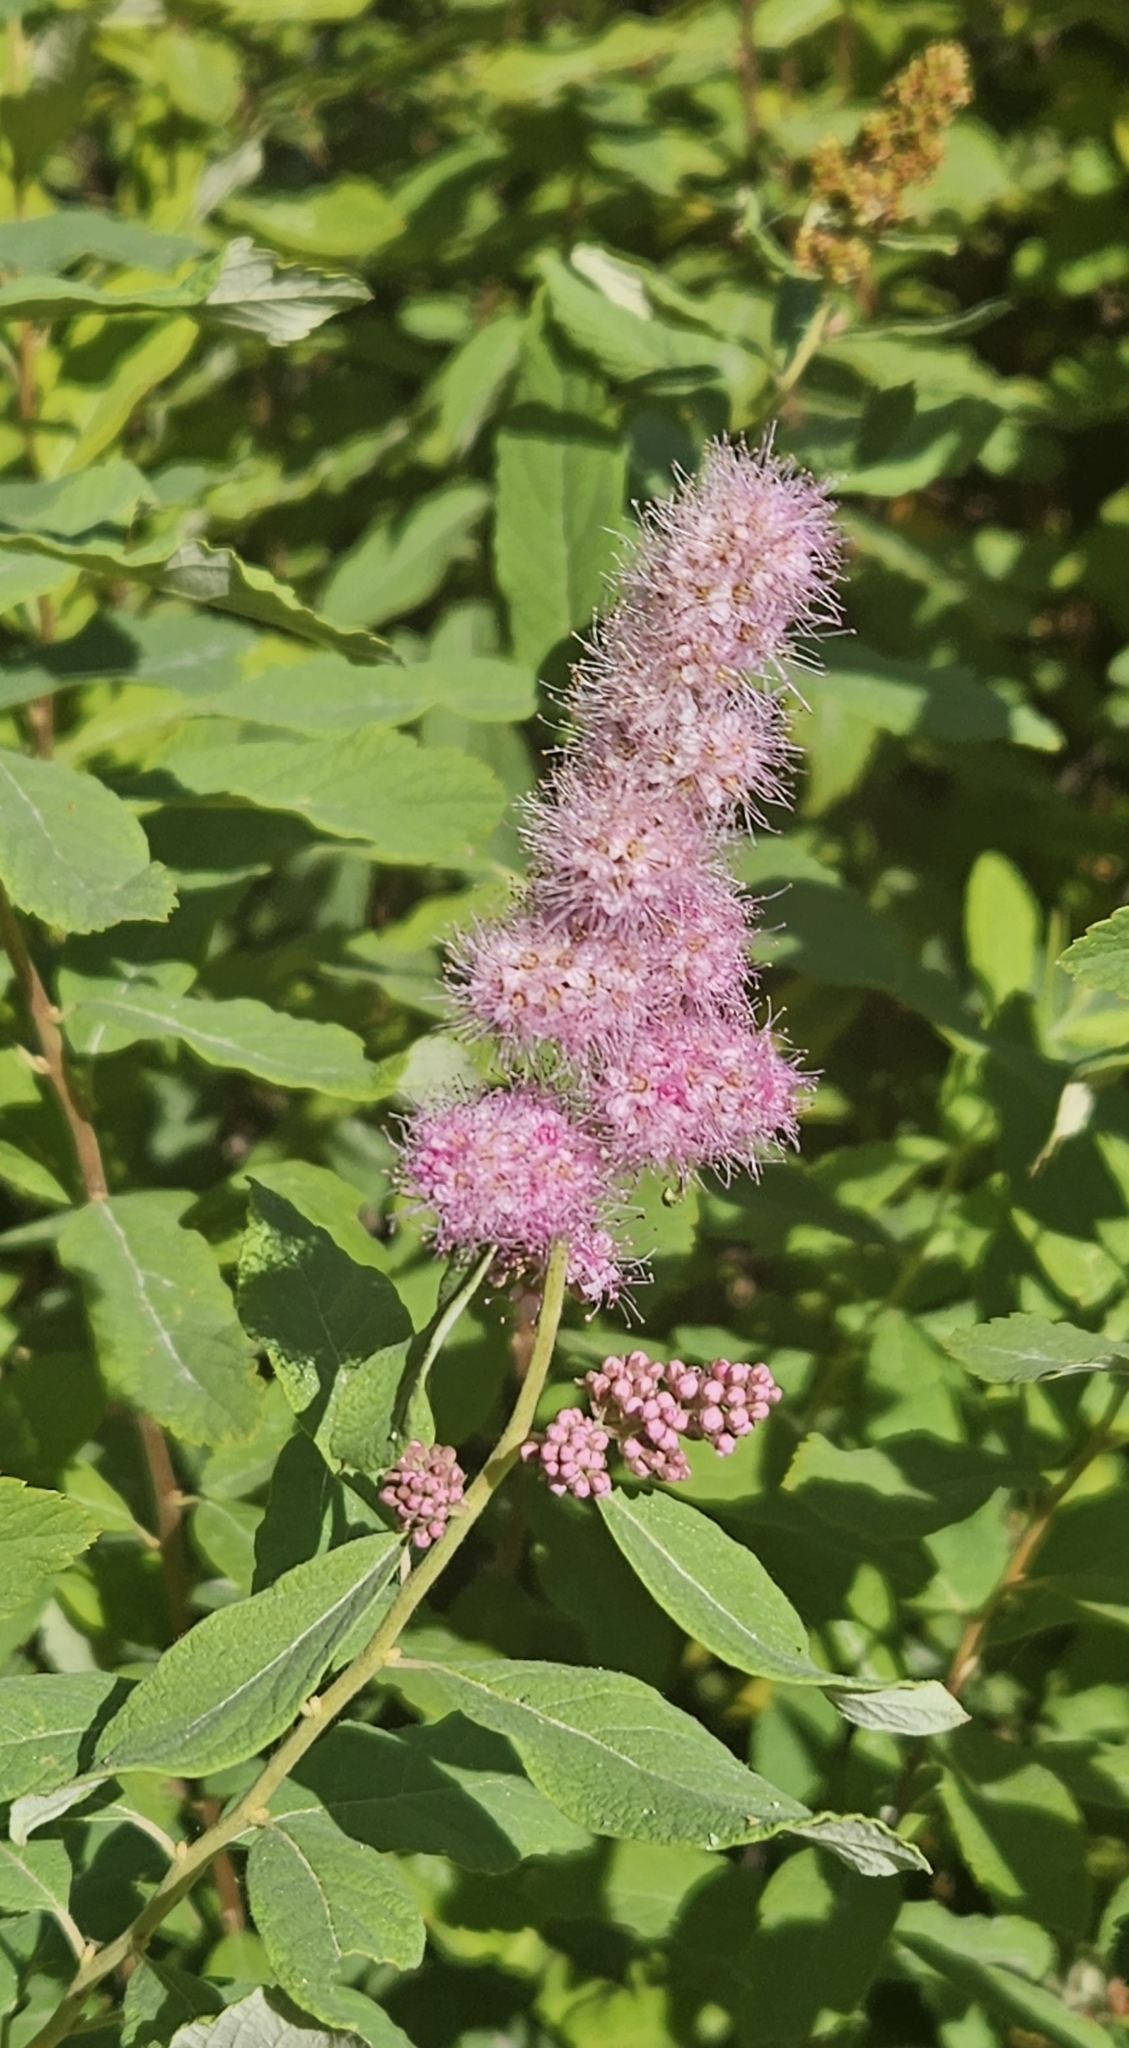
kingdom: Plantae
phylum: Tracheophyta
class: Magnoliopsida
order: Rosales
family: Rosaceae
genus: Spiraea
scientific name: Spiraea douglasii
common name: Steeplebush
